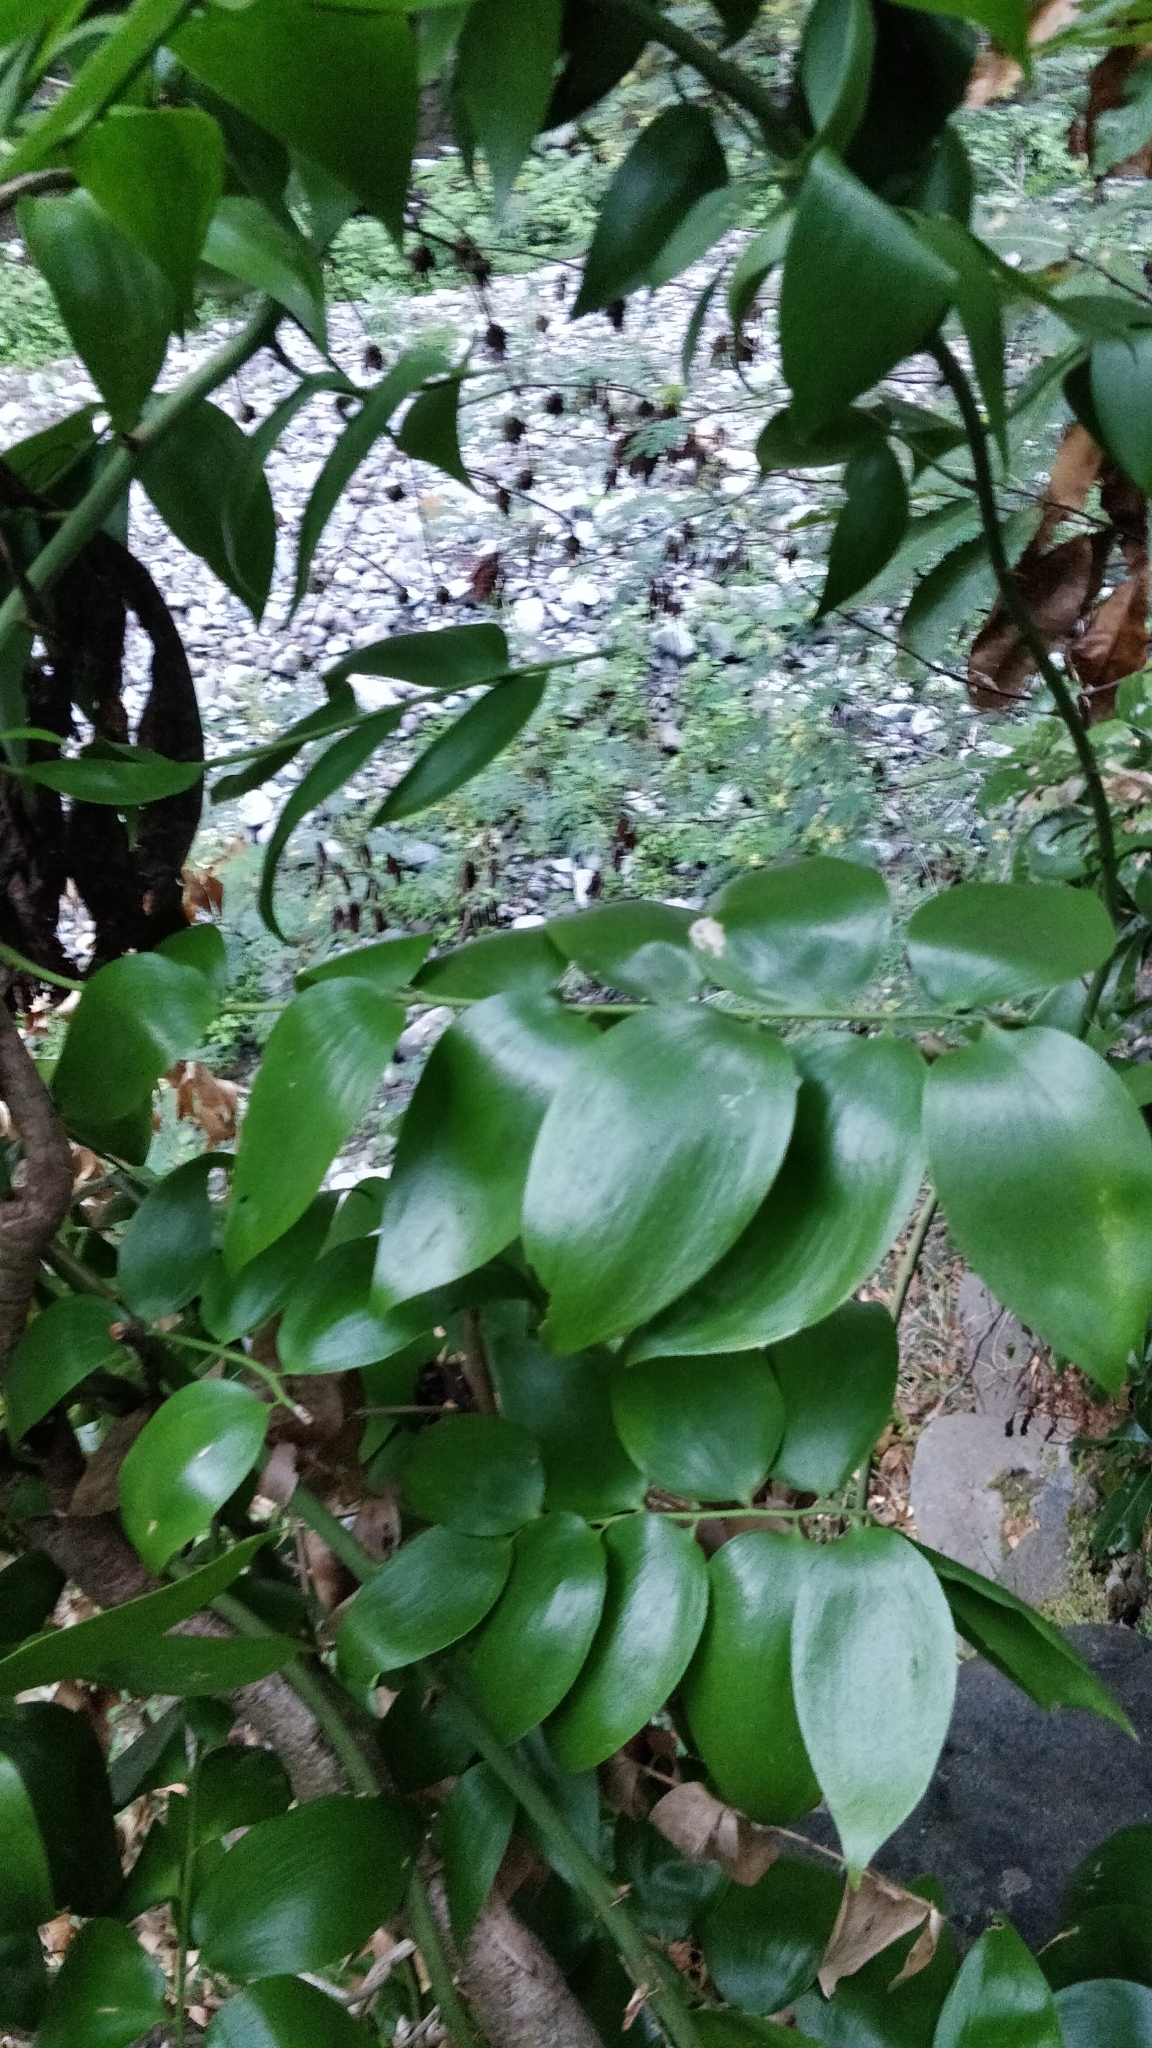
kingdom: Plantae
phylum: Tracheophyta
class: Liliopsida
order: Asparagales
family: Asparagaceae
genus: Semele
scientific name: Semele androgyna
